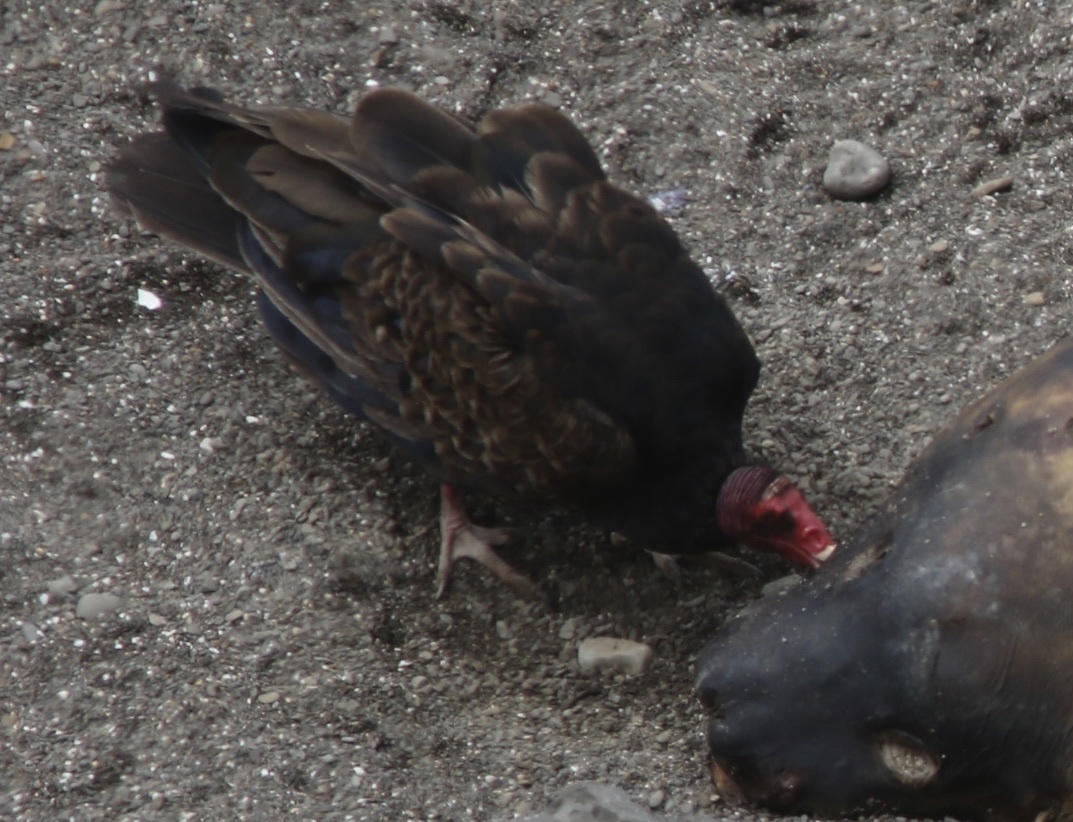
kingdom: Animalia
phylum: Chordata
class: Aves
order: Accipitriformes
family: Cathartidae
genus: Cathartes
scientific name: Cathartes aura
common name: Turkey vulture
